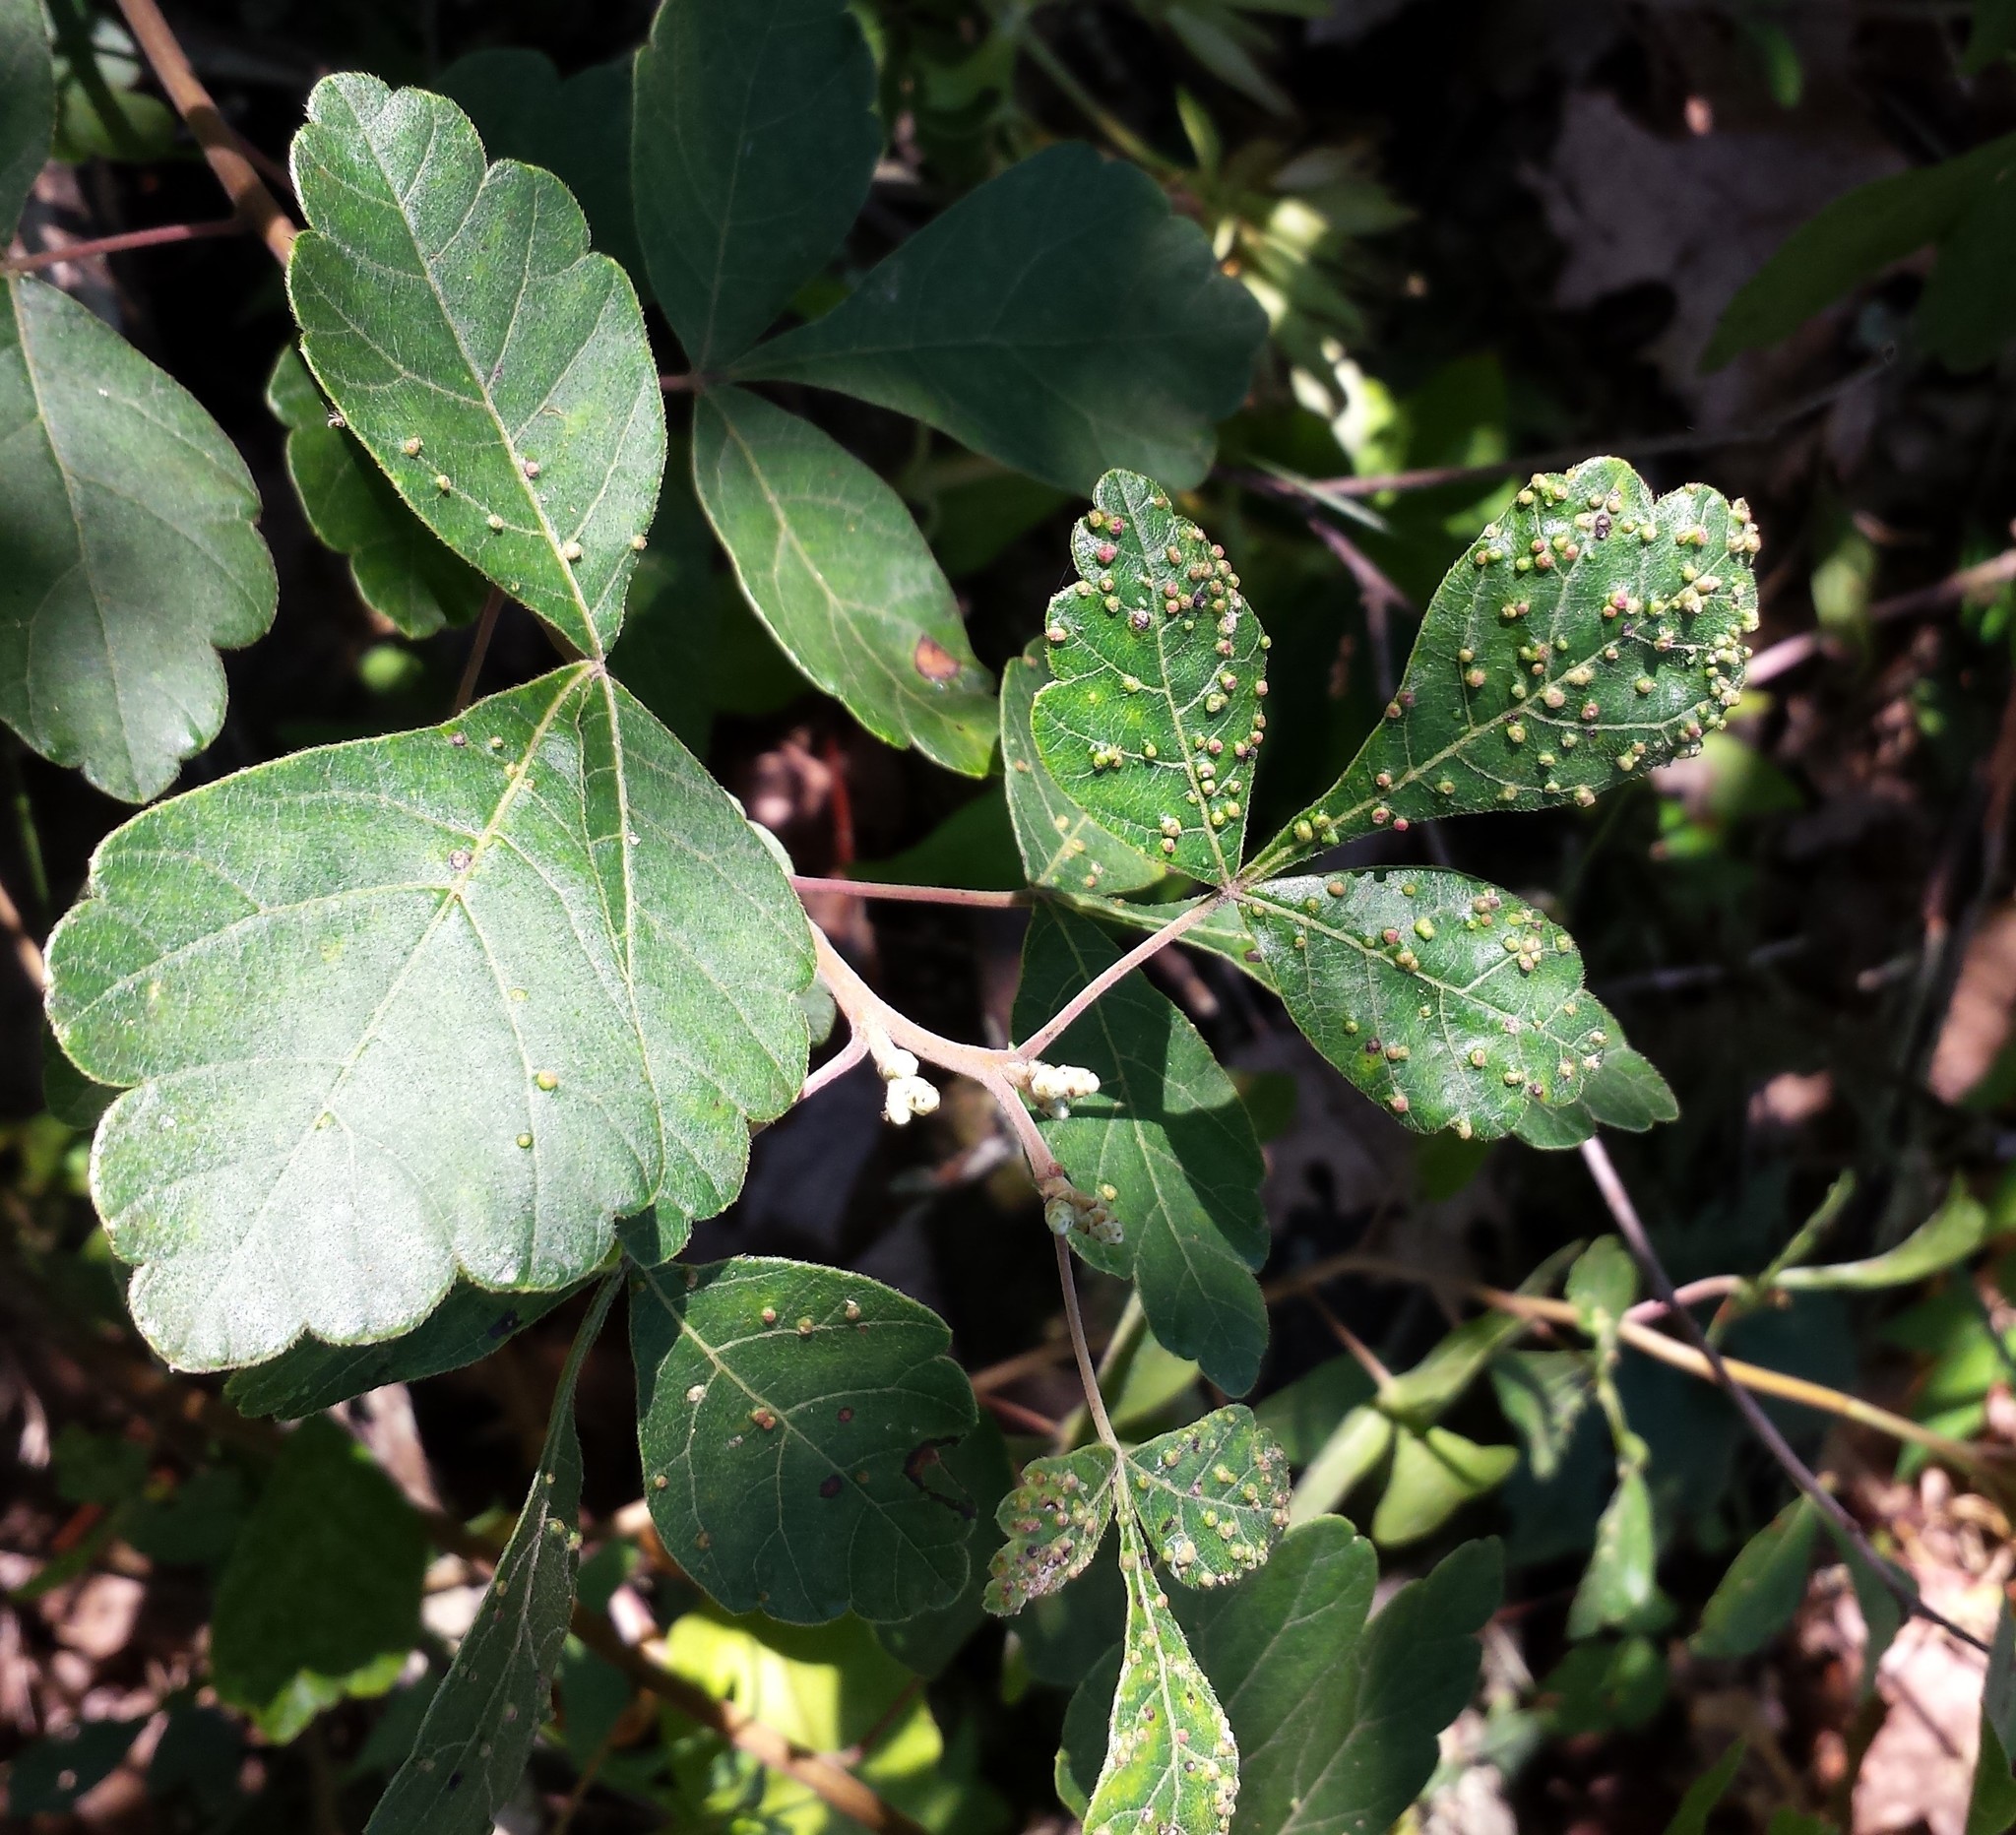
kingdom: Animalia
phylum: Arthropoda
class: Arachnida
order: Trombidiformes
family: Eriophyidae
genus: Aculops
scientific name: Aculops
